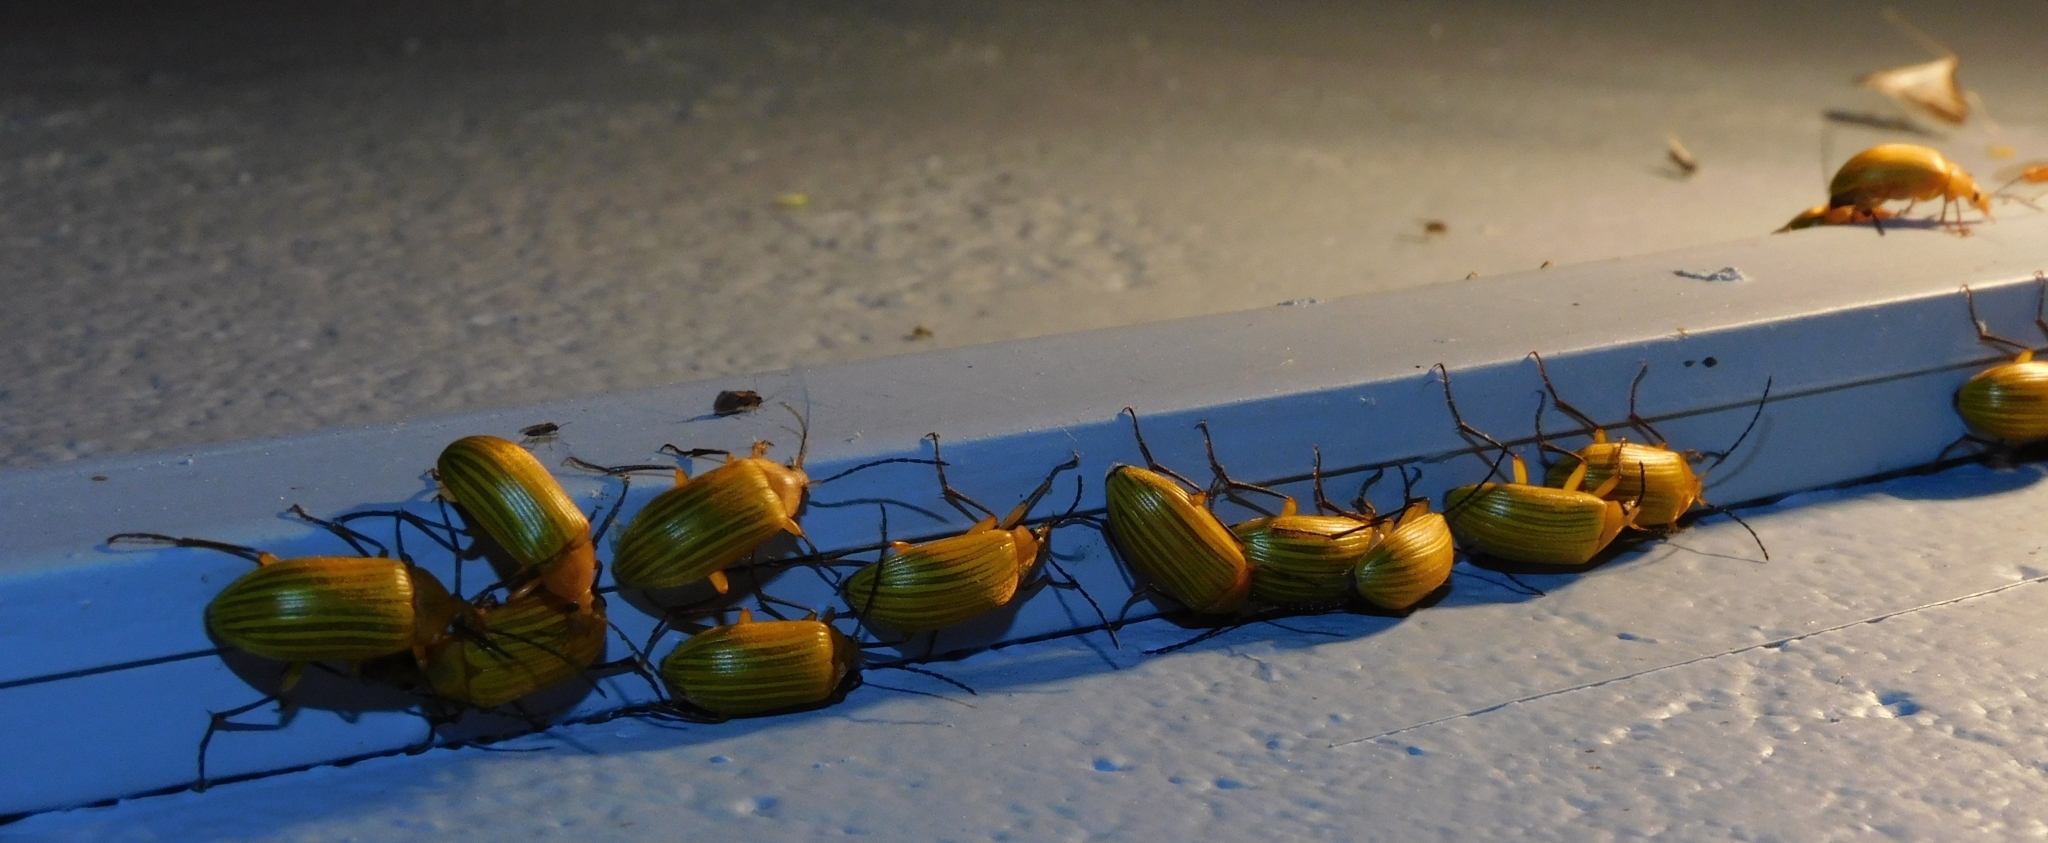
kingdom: Animalia
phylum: Arthropoda
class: Insecta
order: Coleoptera
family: Tenebrionidae
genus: Cistelomorpha
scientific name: Cistelomorpha
